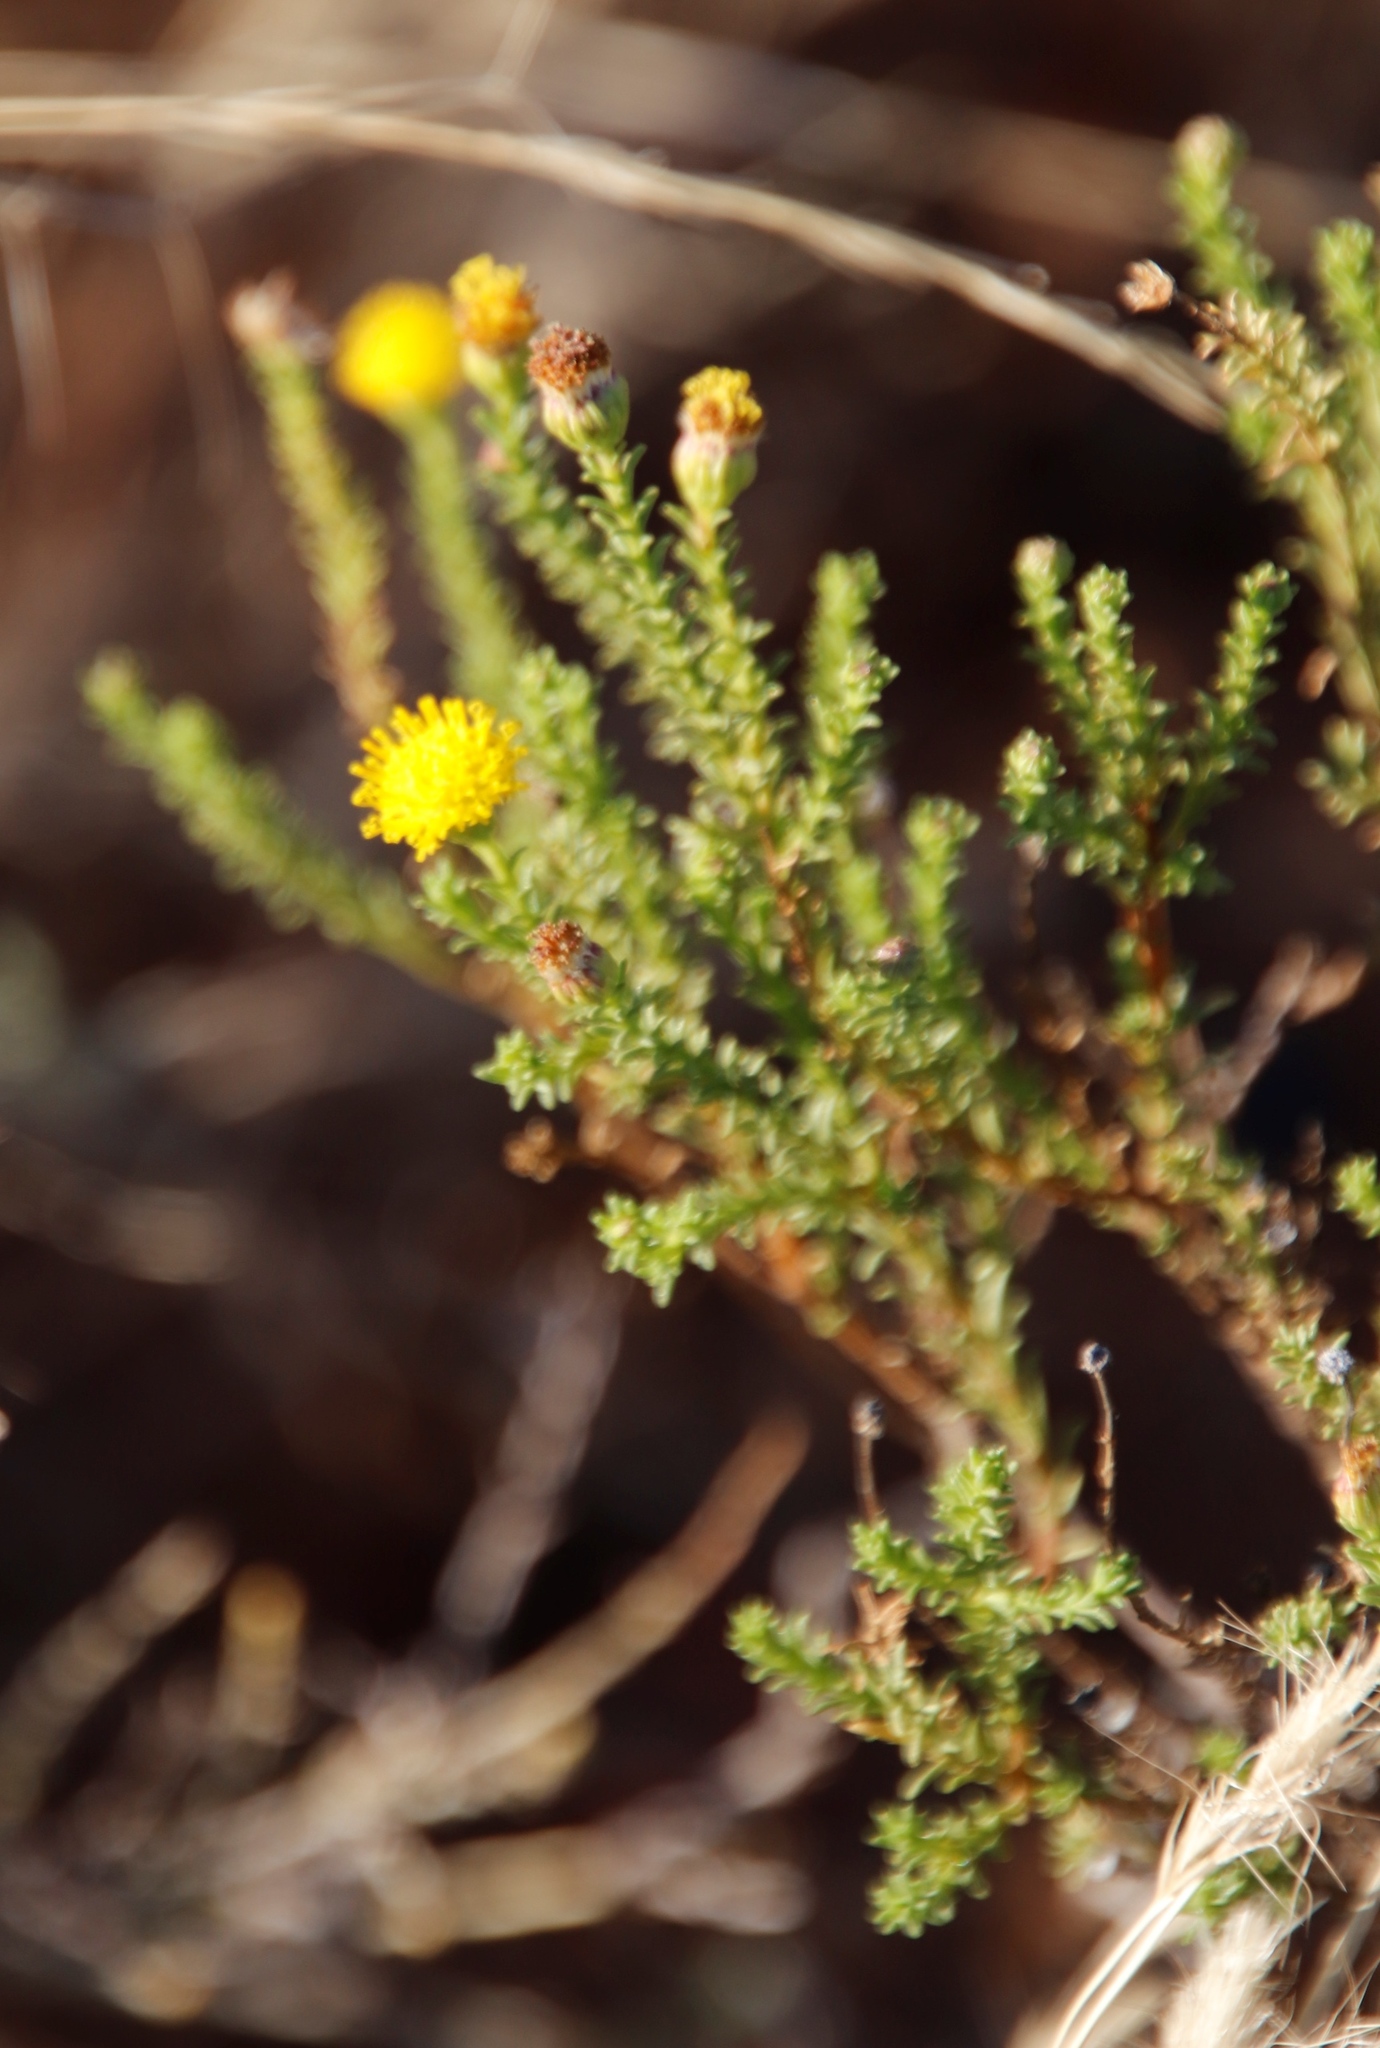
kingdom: Plantae
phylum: Tracheophyta
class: Magnoliopsida
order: Asterales
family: Asteraceae
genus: Chrysocoma
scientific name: Chrysocoma ciliata
